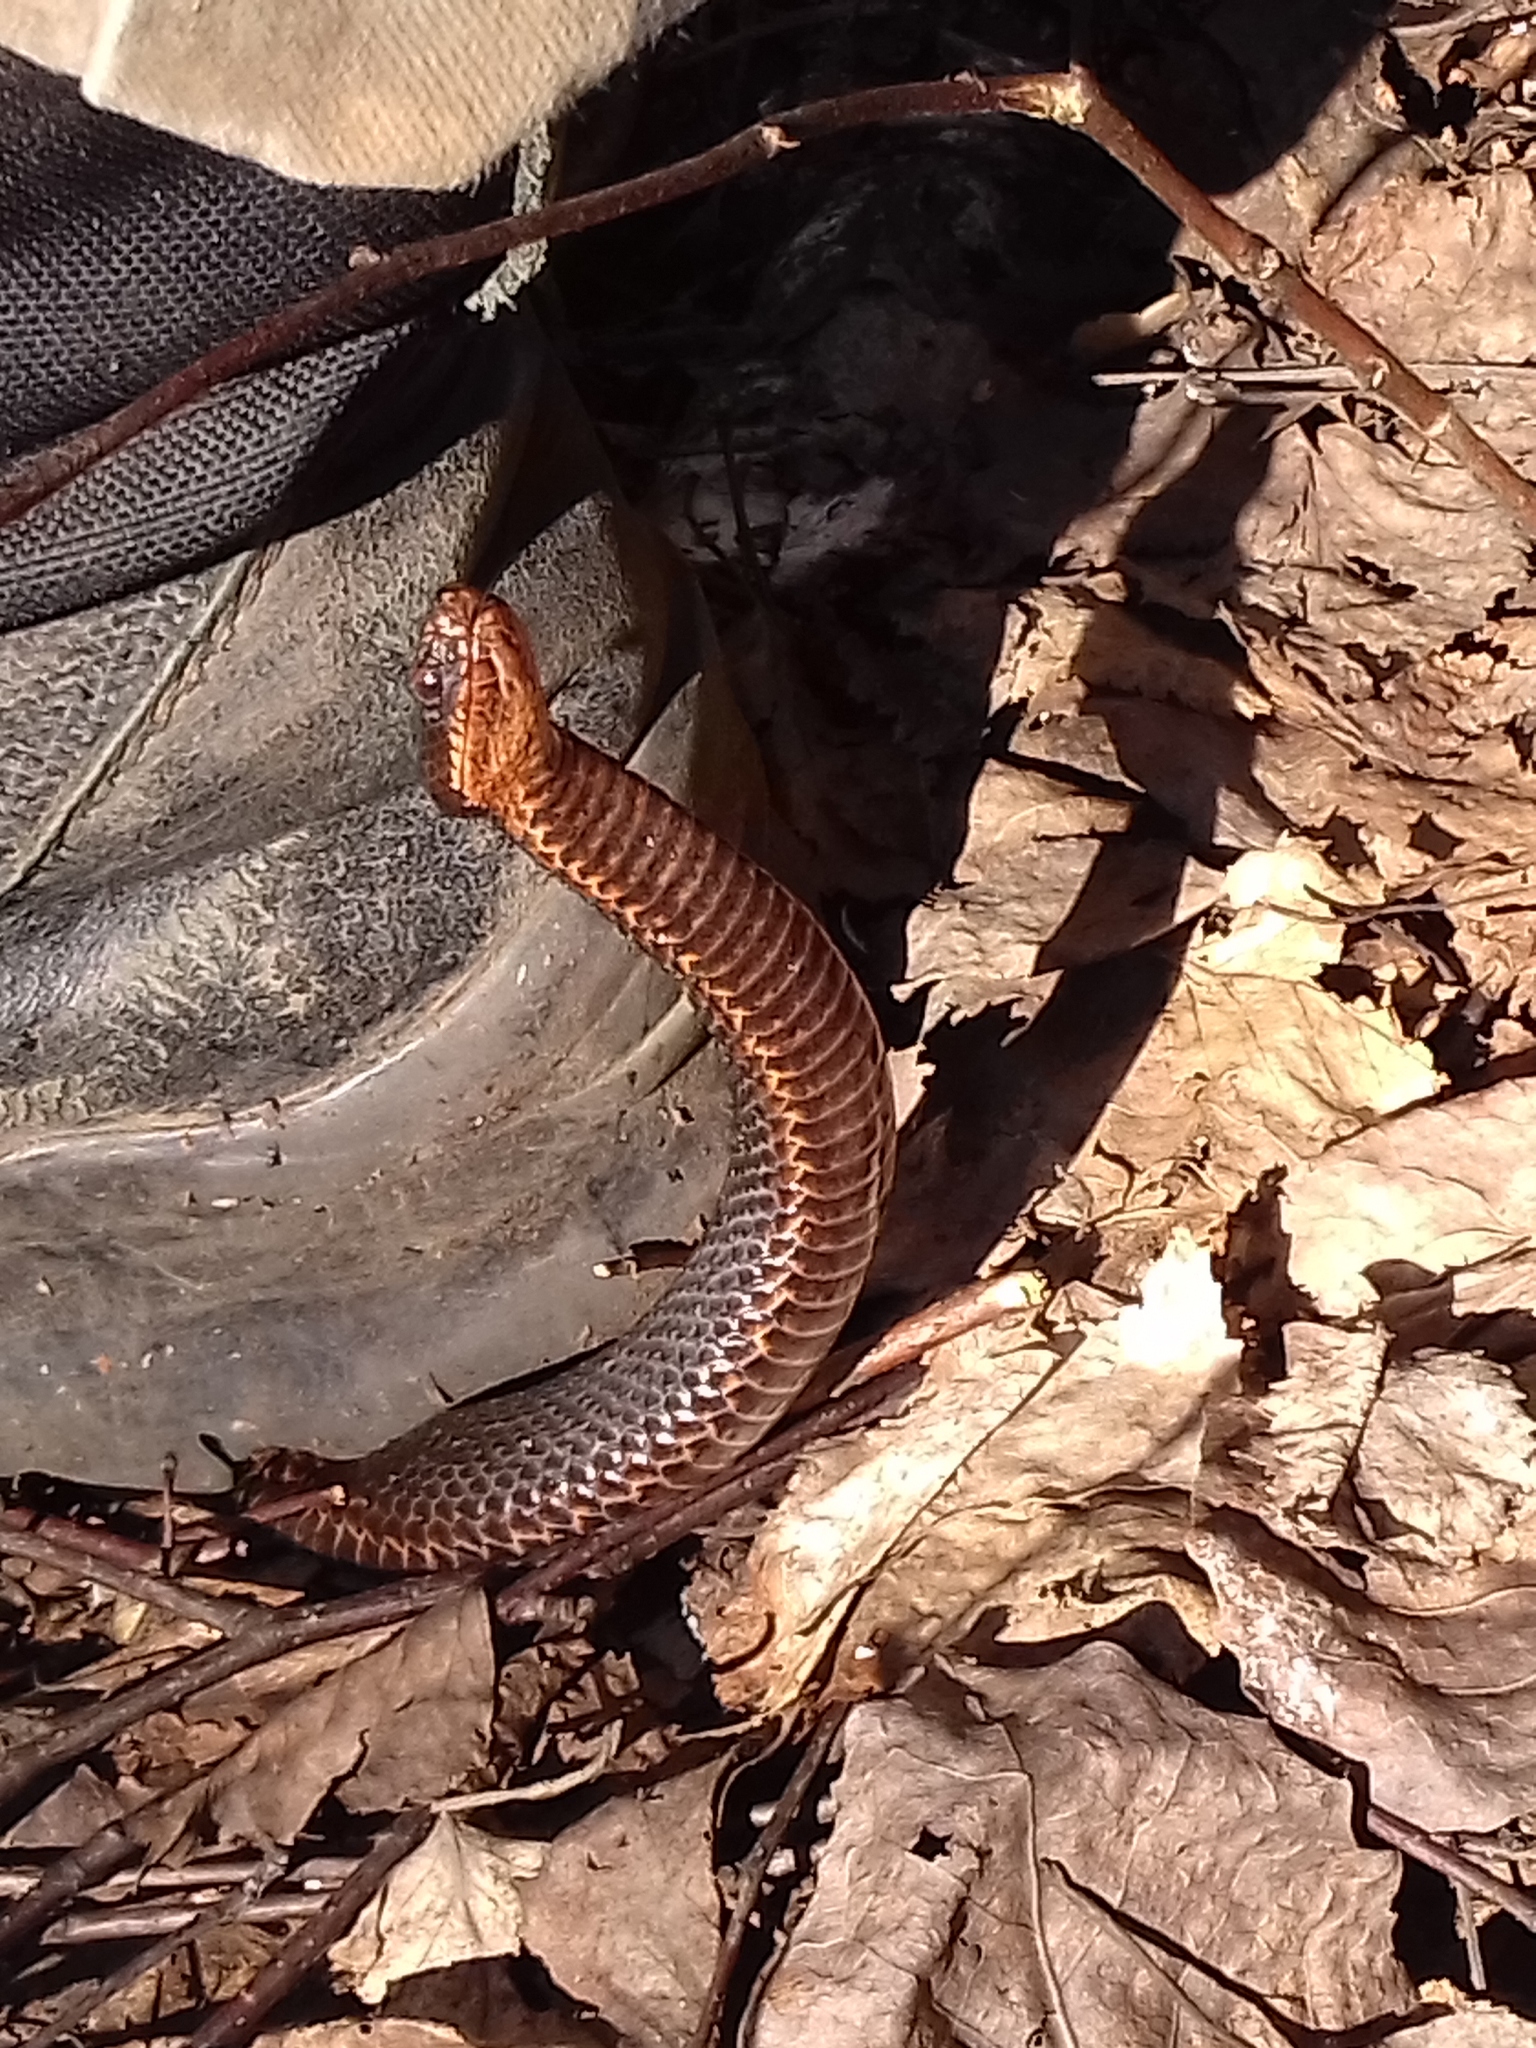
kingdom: Animalia
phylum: Chordata
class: Squamata
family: Viperidae
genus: Vipera
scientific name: Vipera berus
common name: Adder
